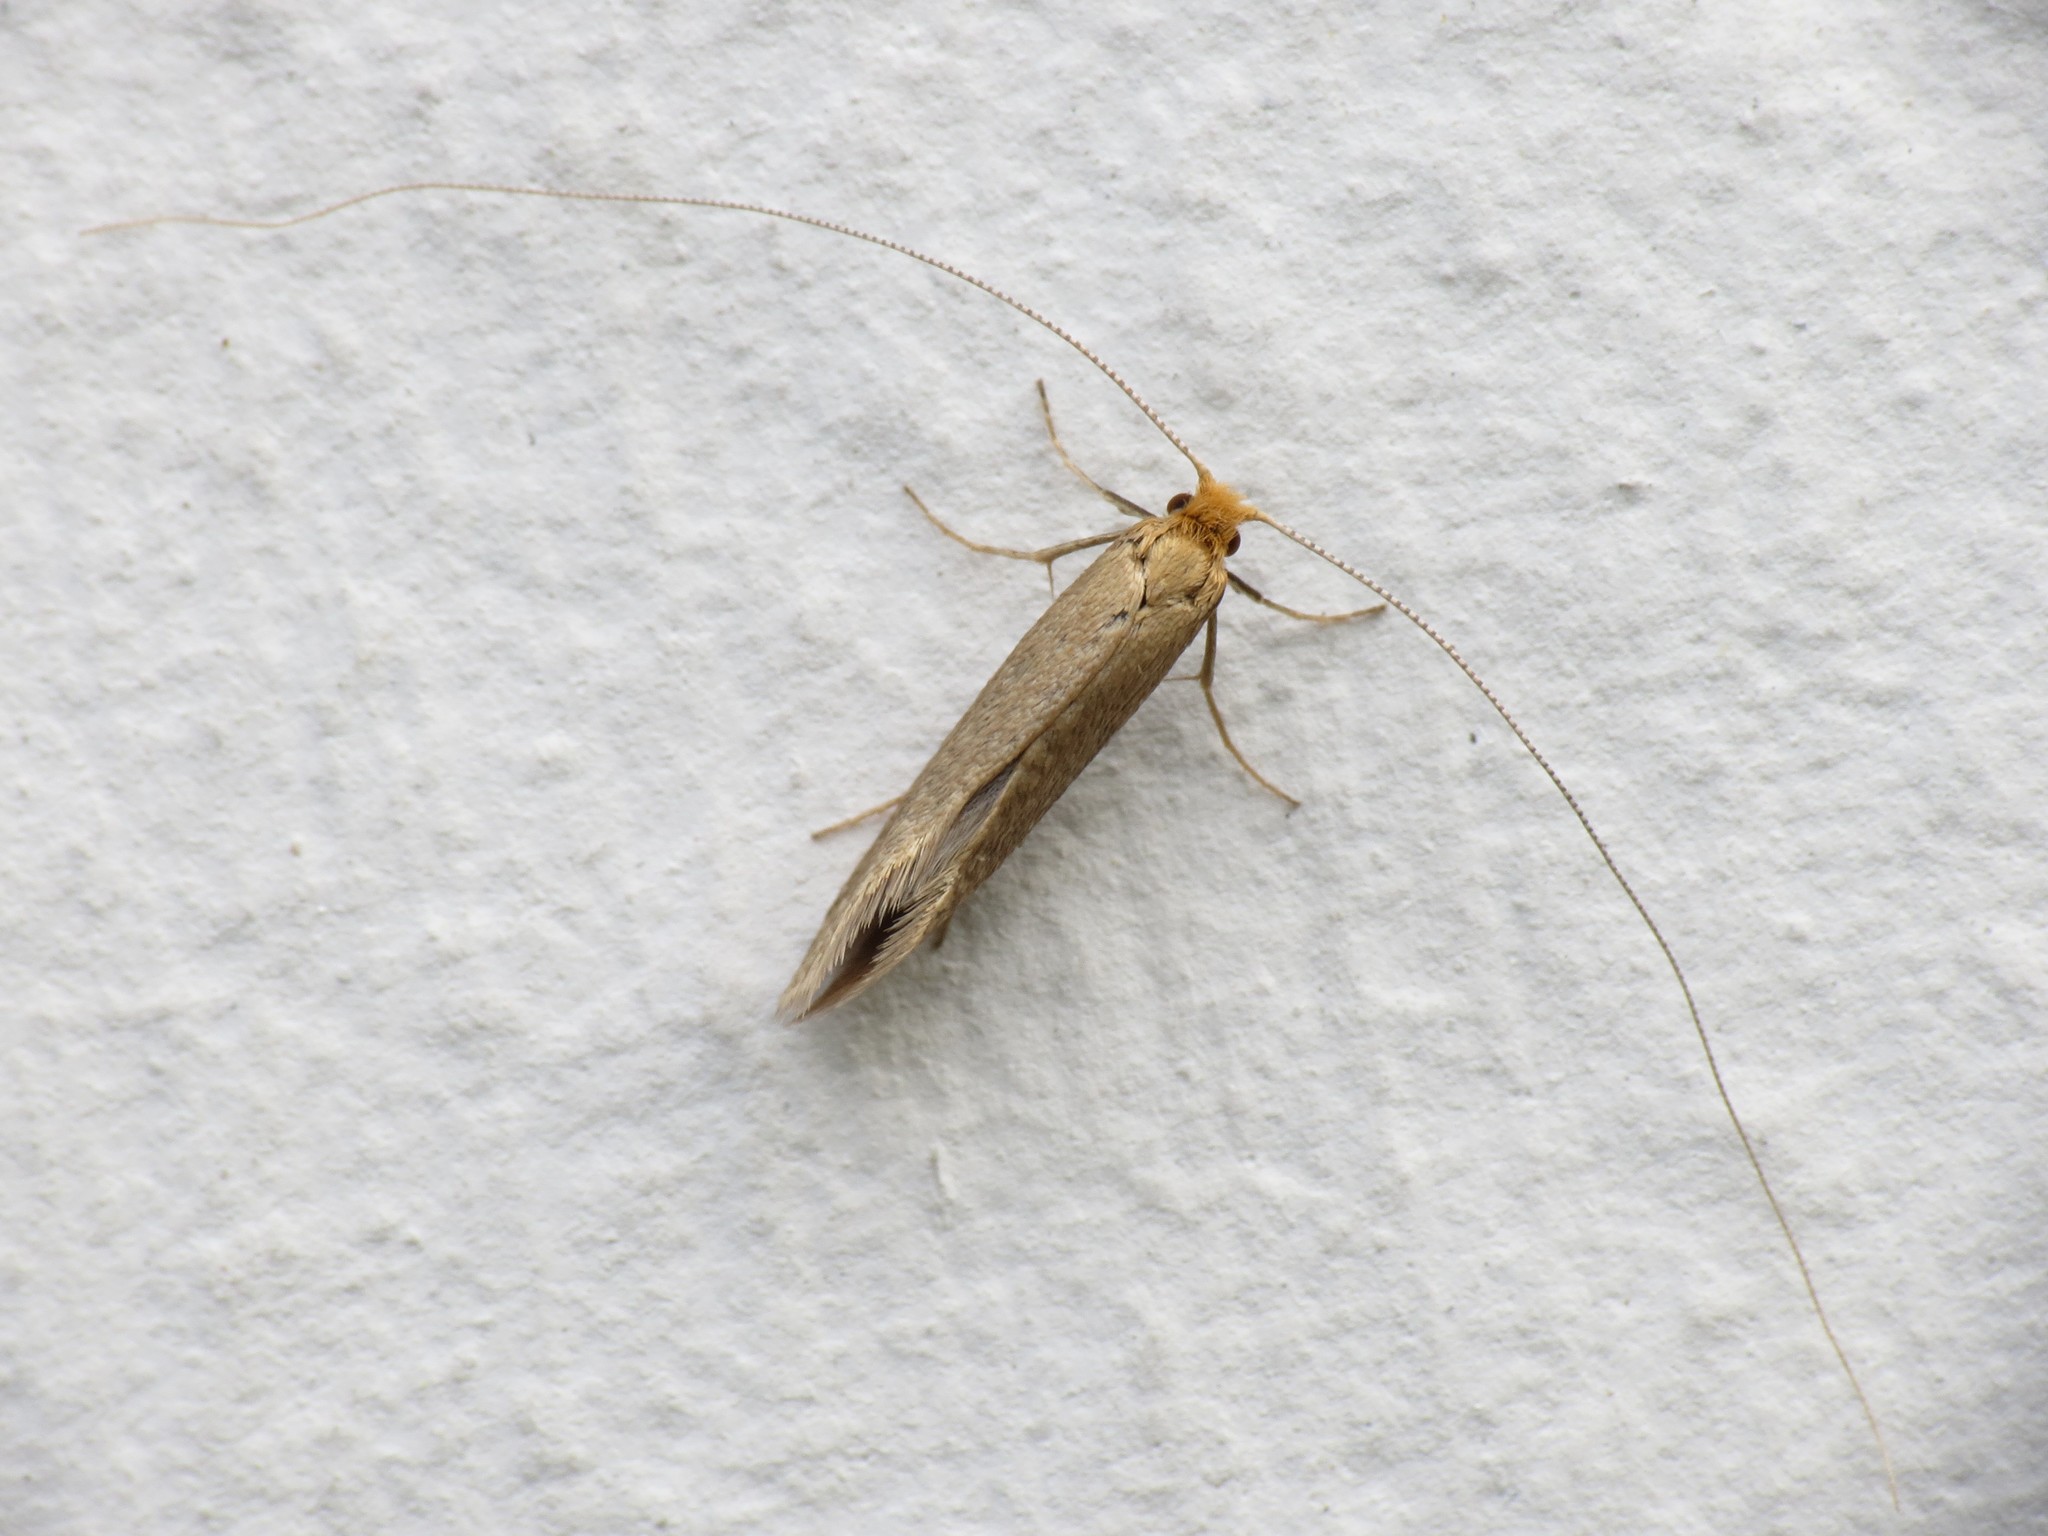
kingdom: Animalia
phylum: Arthropoda
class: Insecta
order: Lepidoptera
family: Adelidae
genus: Nematopogon
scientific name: Nematopogon adansoniella
